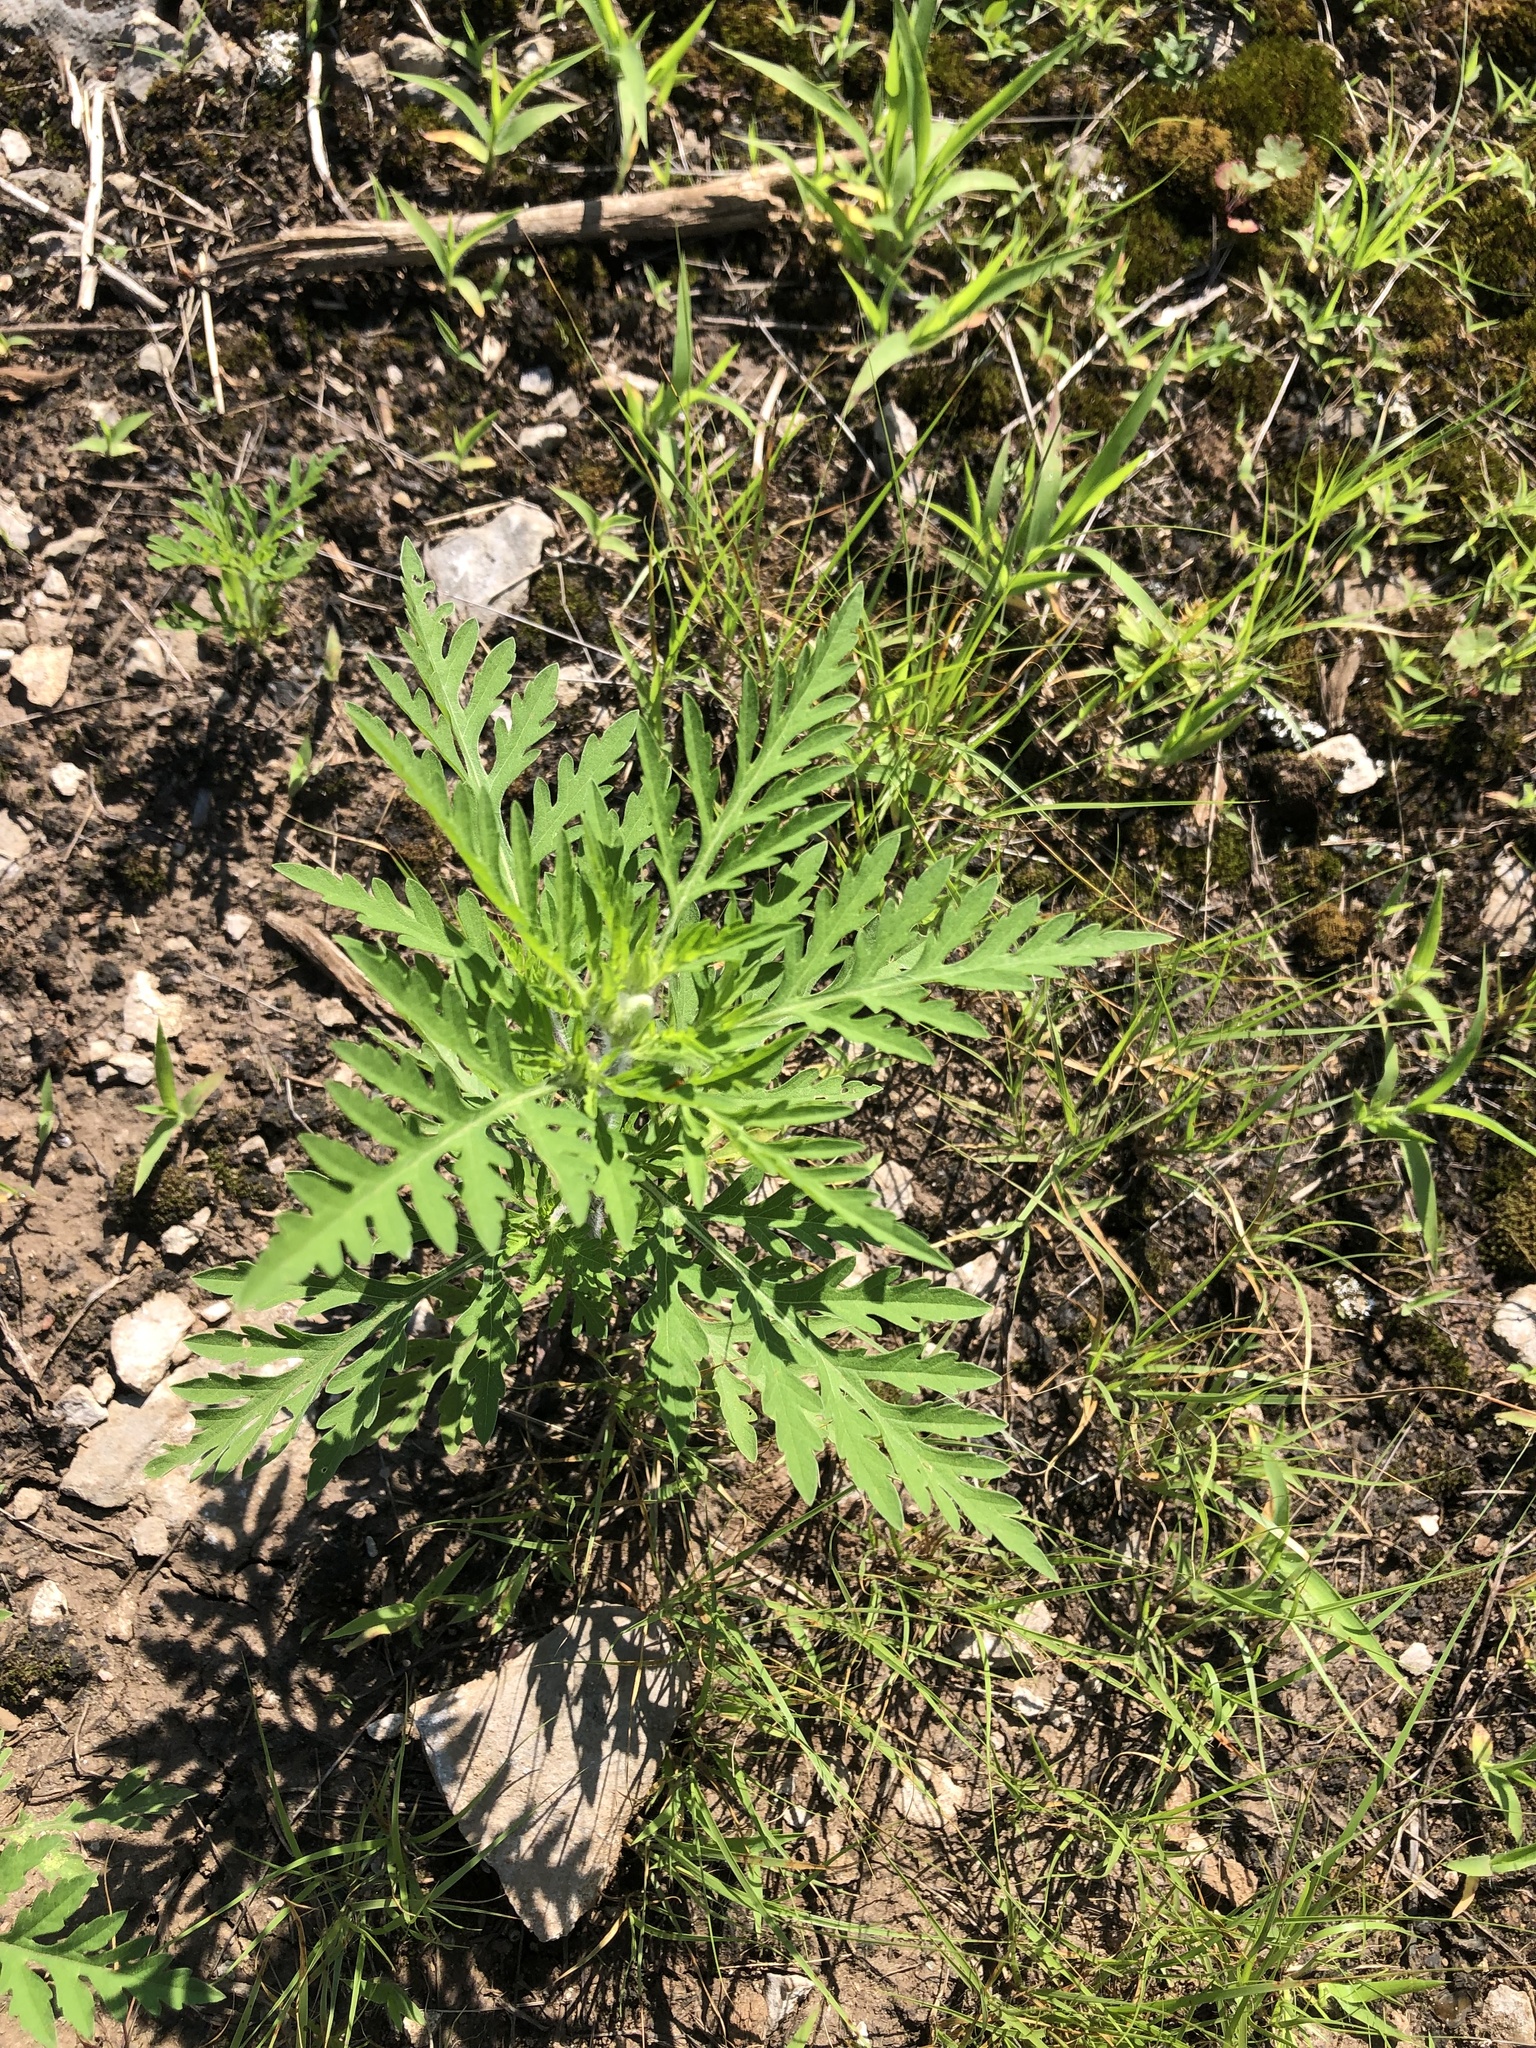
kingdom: Plantae
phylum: Tracheophyta
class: Magnoliopsida
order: Asterales
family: Asteraceae
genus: Ambrosia
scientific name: Ambrosia artemisiifolia
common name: Annual ragweed
